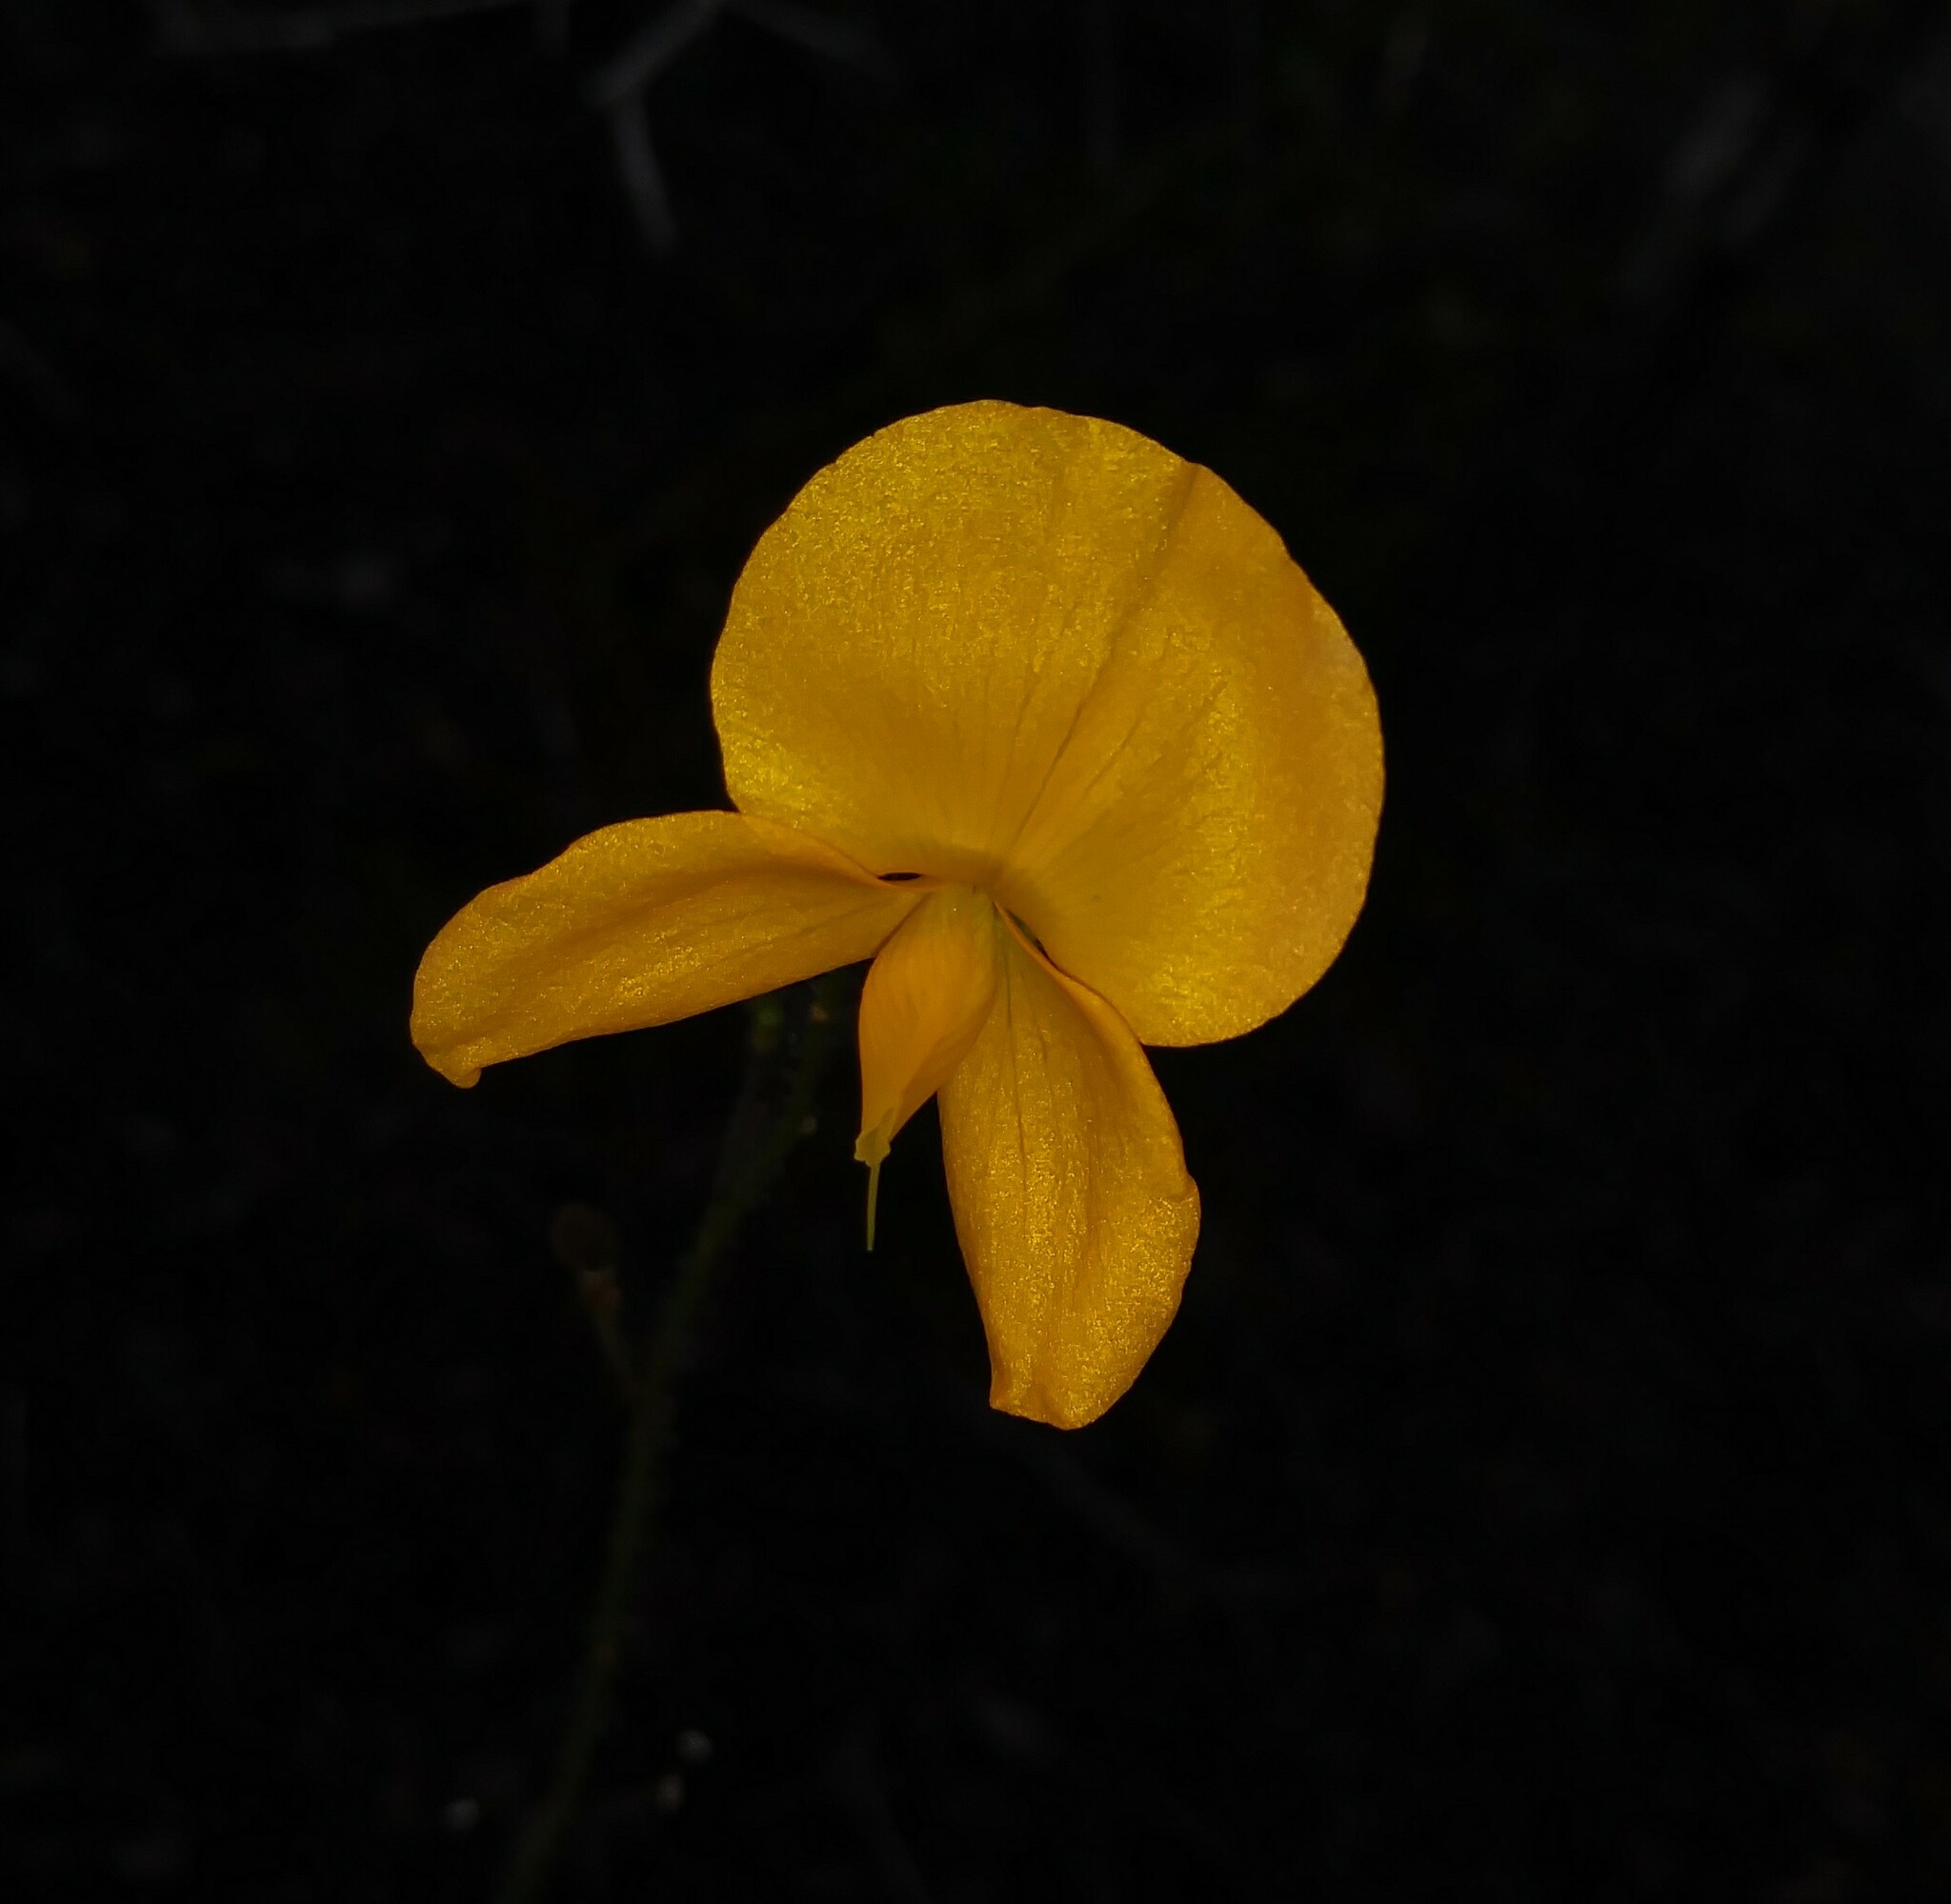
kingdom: Plantae
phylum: Tracheophyta
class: Magnoliopsida
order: Fabales
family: Fabaceae
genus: Chapmannia
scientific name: Chapmannia floridana
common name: Alicia
